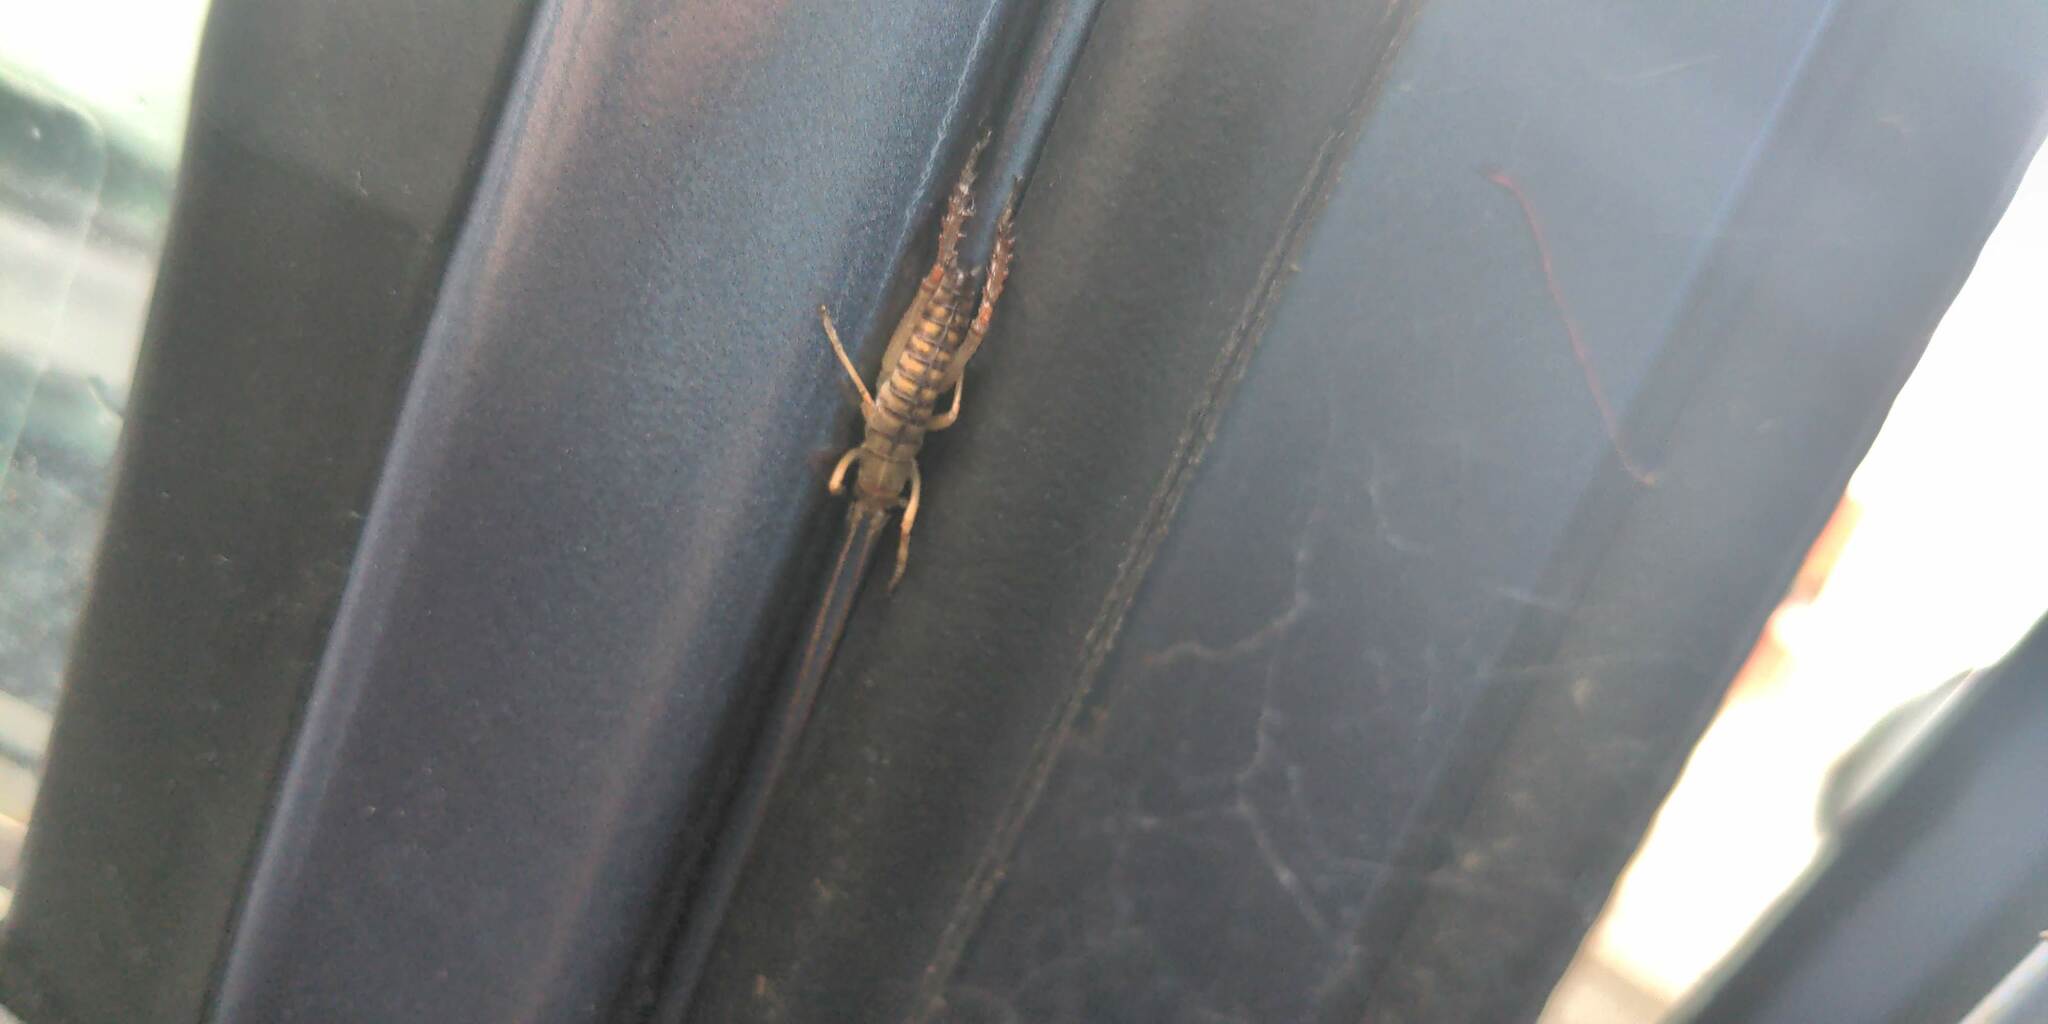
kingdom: Animalia
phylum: Arthropoda
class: Insecta
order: Orthoptera
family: Anostostomatidae
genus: Hemideina
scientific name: Hemideina crassidens
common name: Wellington tree weta
